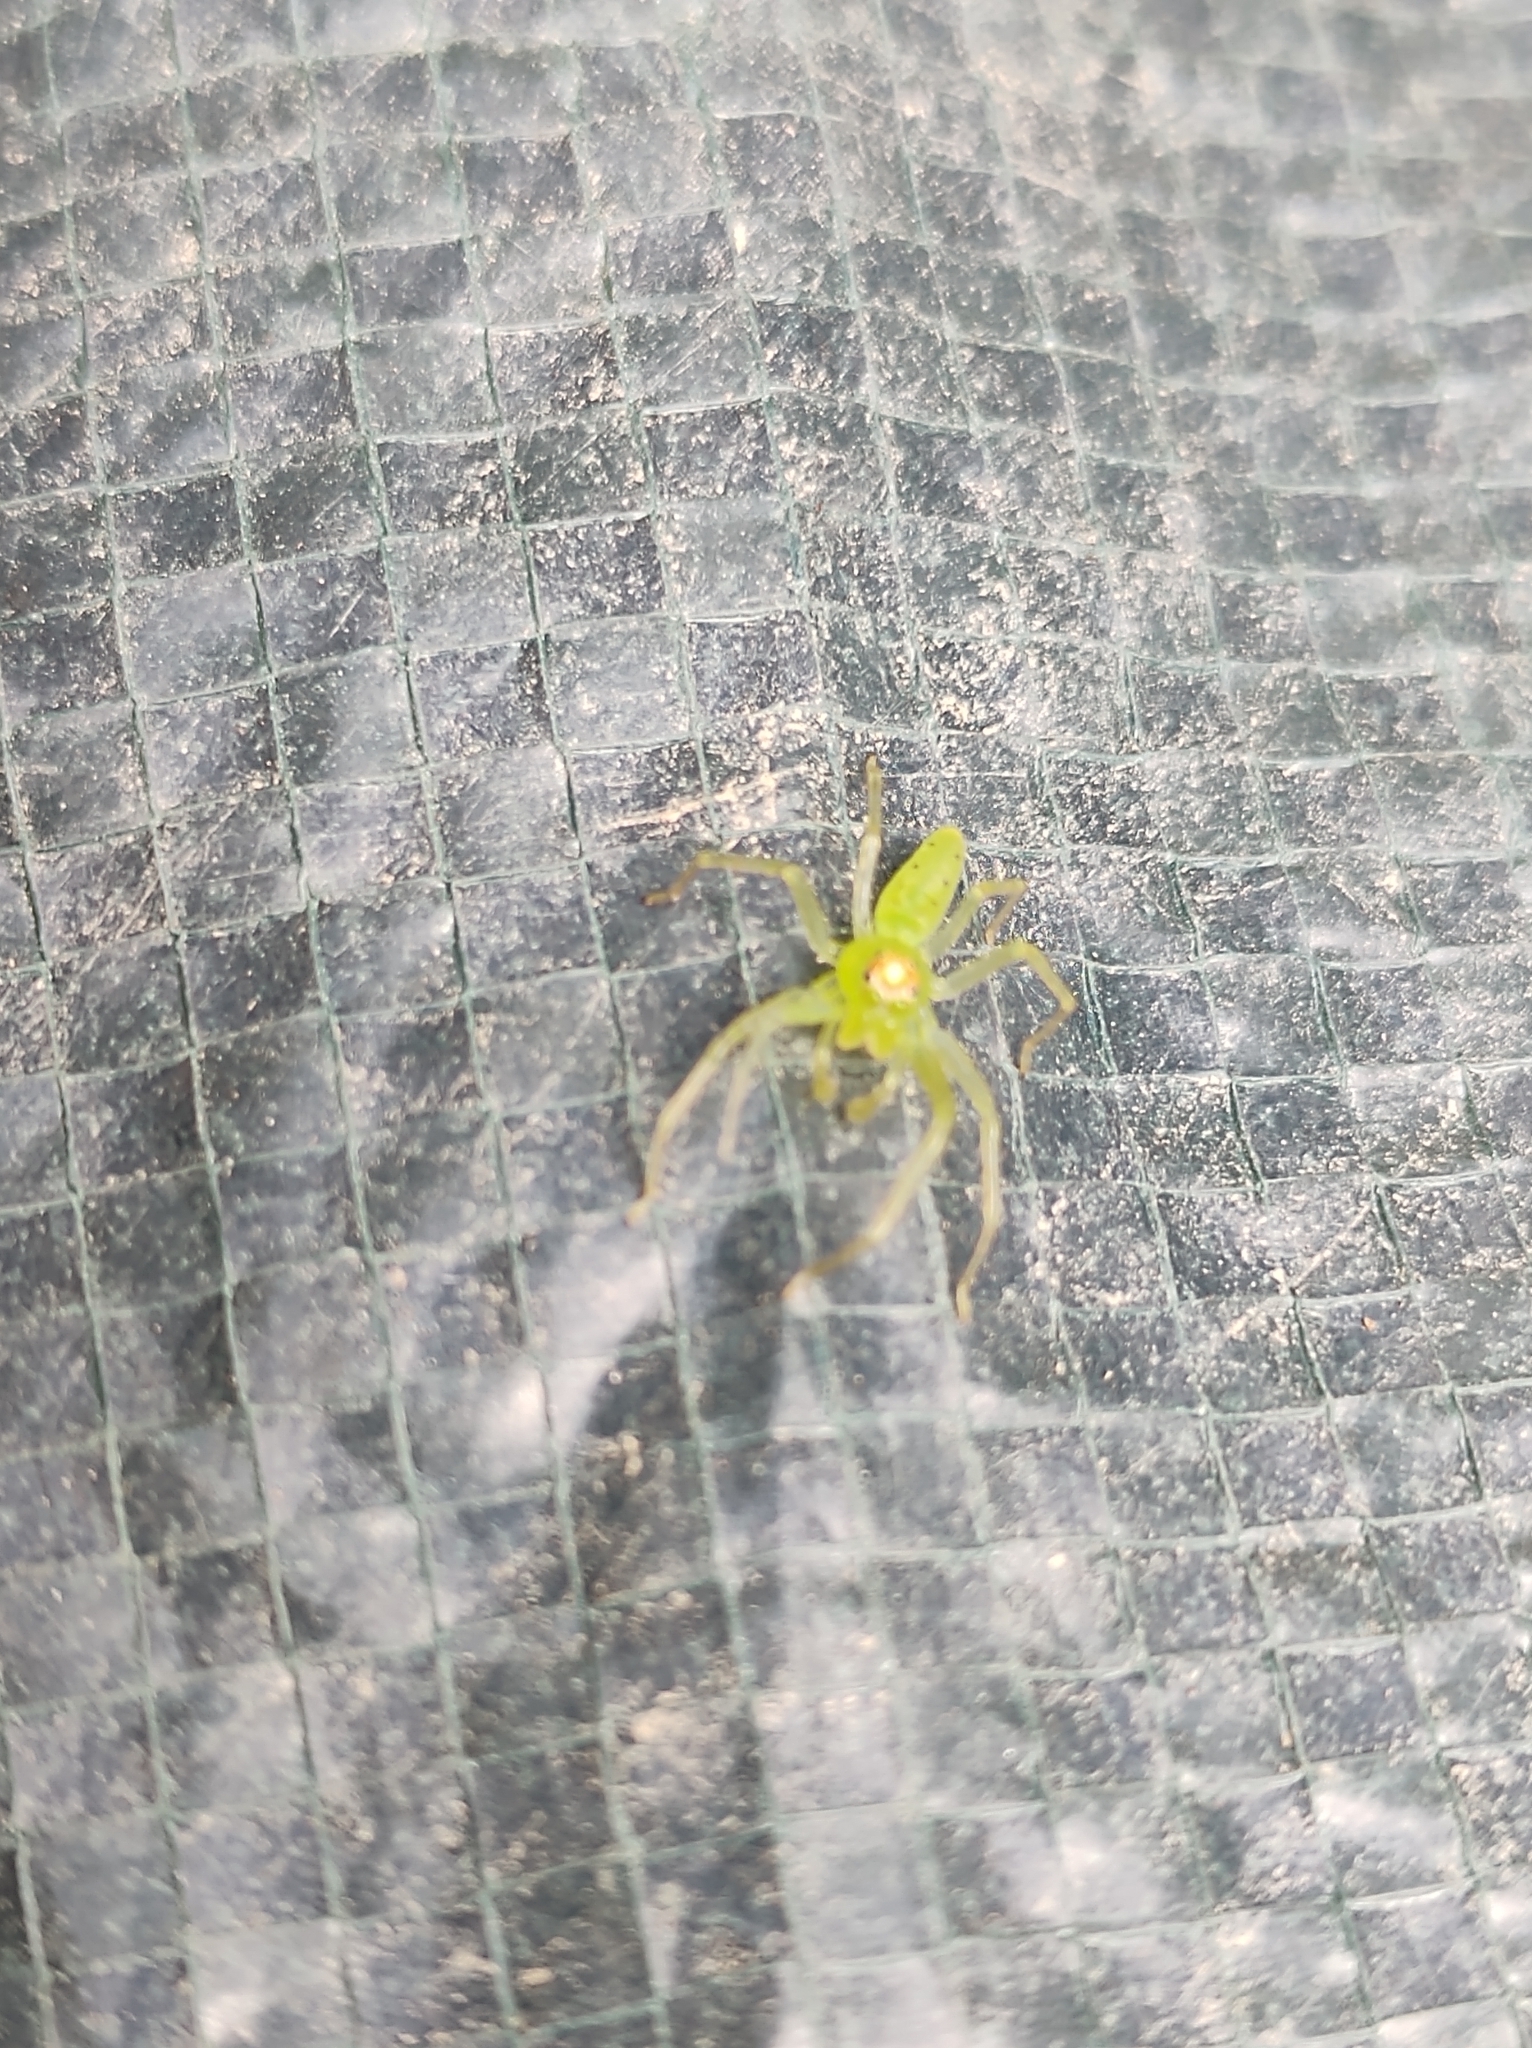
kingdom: Animalia
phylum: Arthropoda
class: Arachnida
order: Araneae
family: Salticidae
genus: Lyssomanes
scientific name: Lyssomanes viridis
